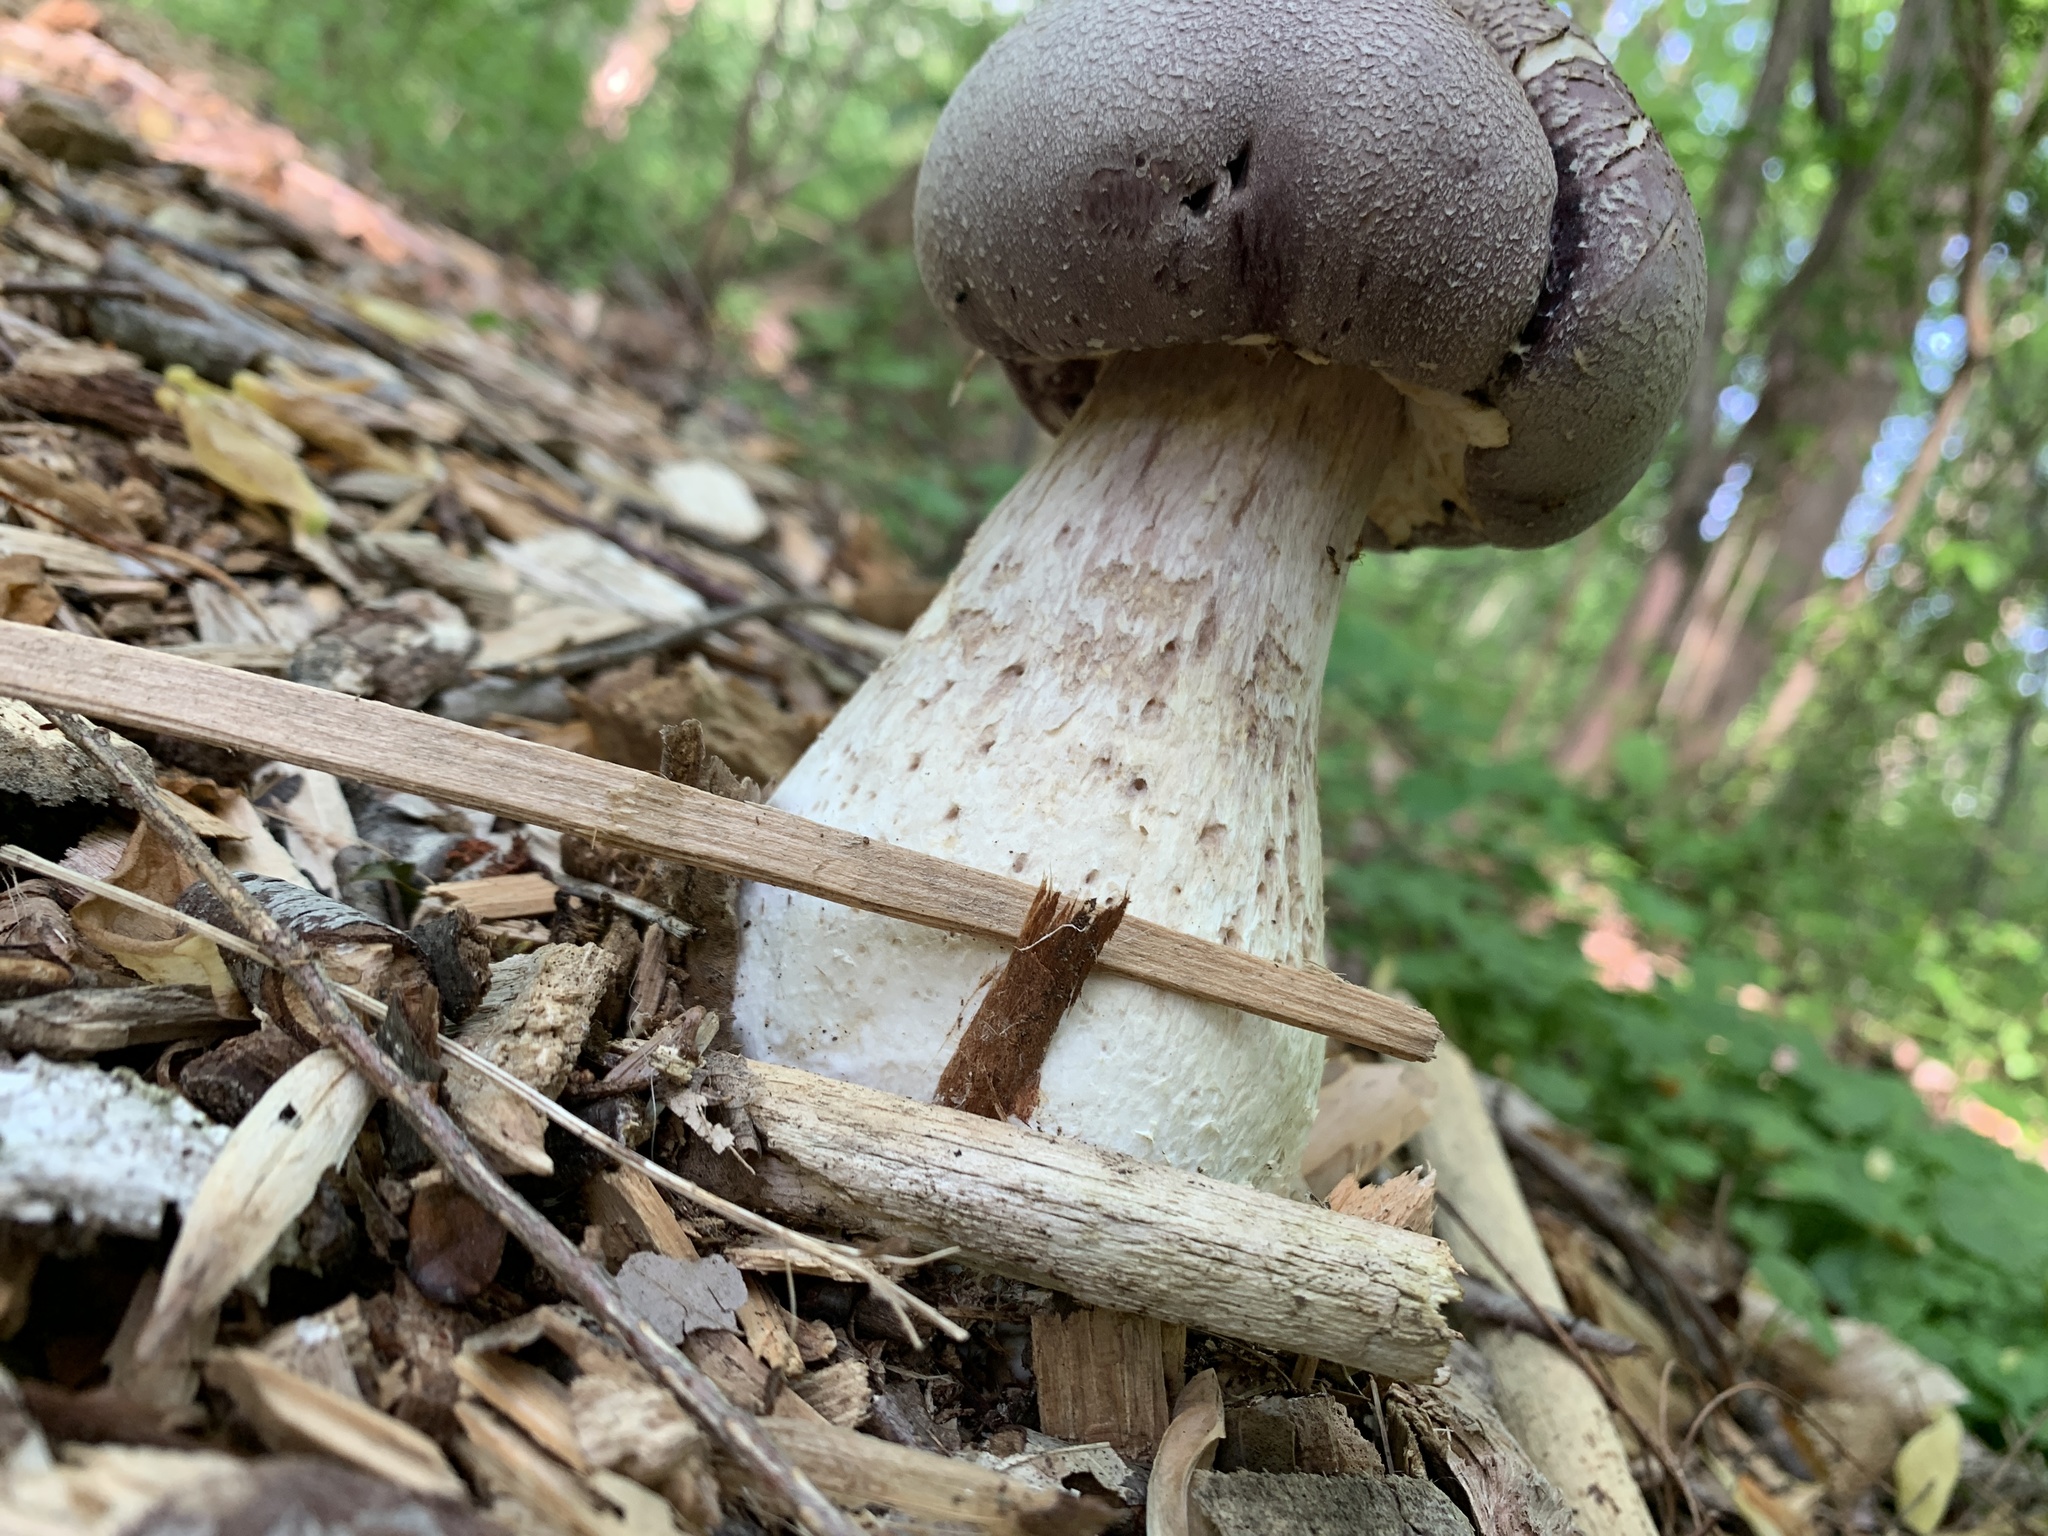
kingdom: Fungi
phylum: Basidiomycota
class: Agaricomycetes
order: Agaricales
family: Strophariaceae
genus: Stropharia
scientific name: Stropharia rugosoannulata
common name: Wine roundhead
